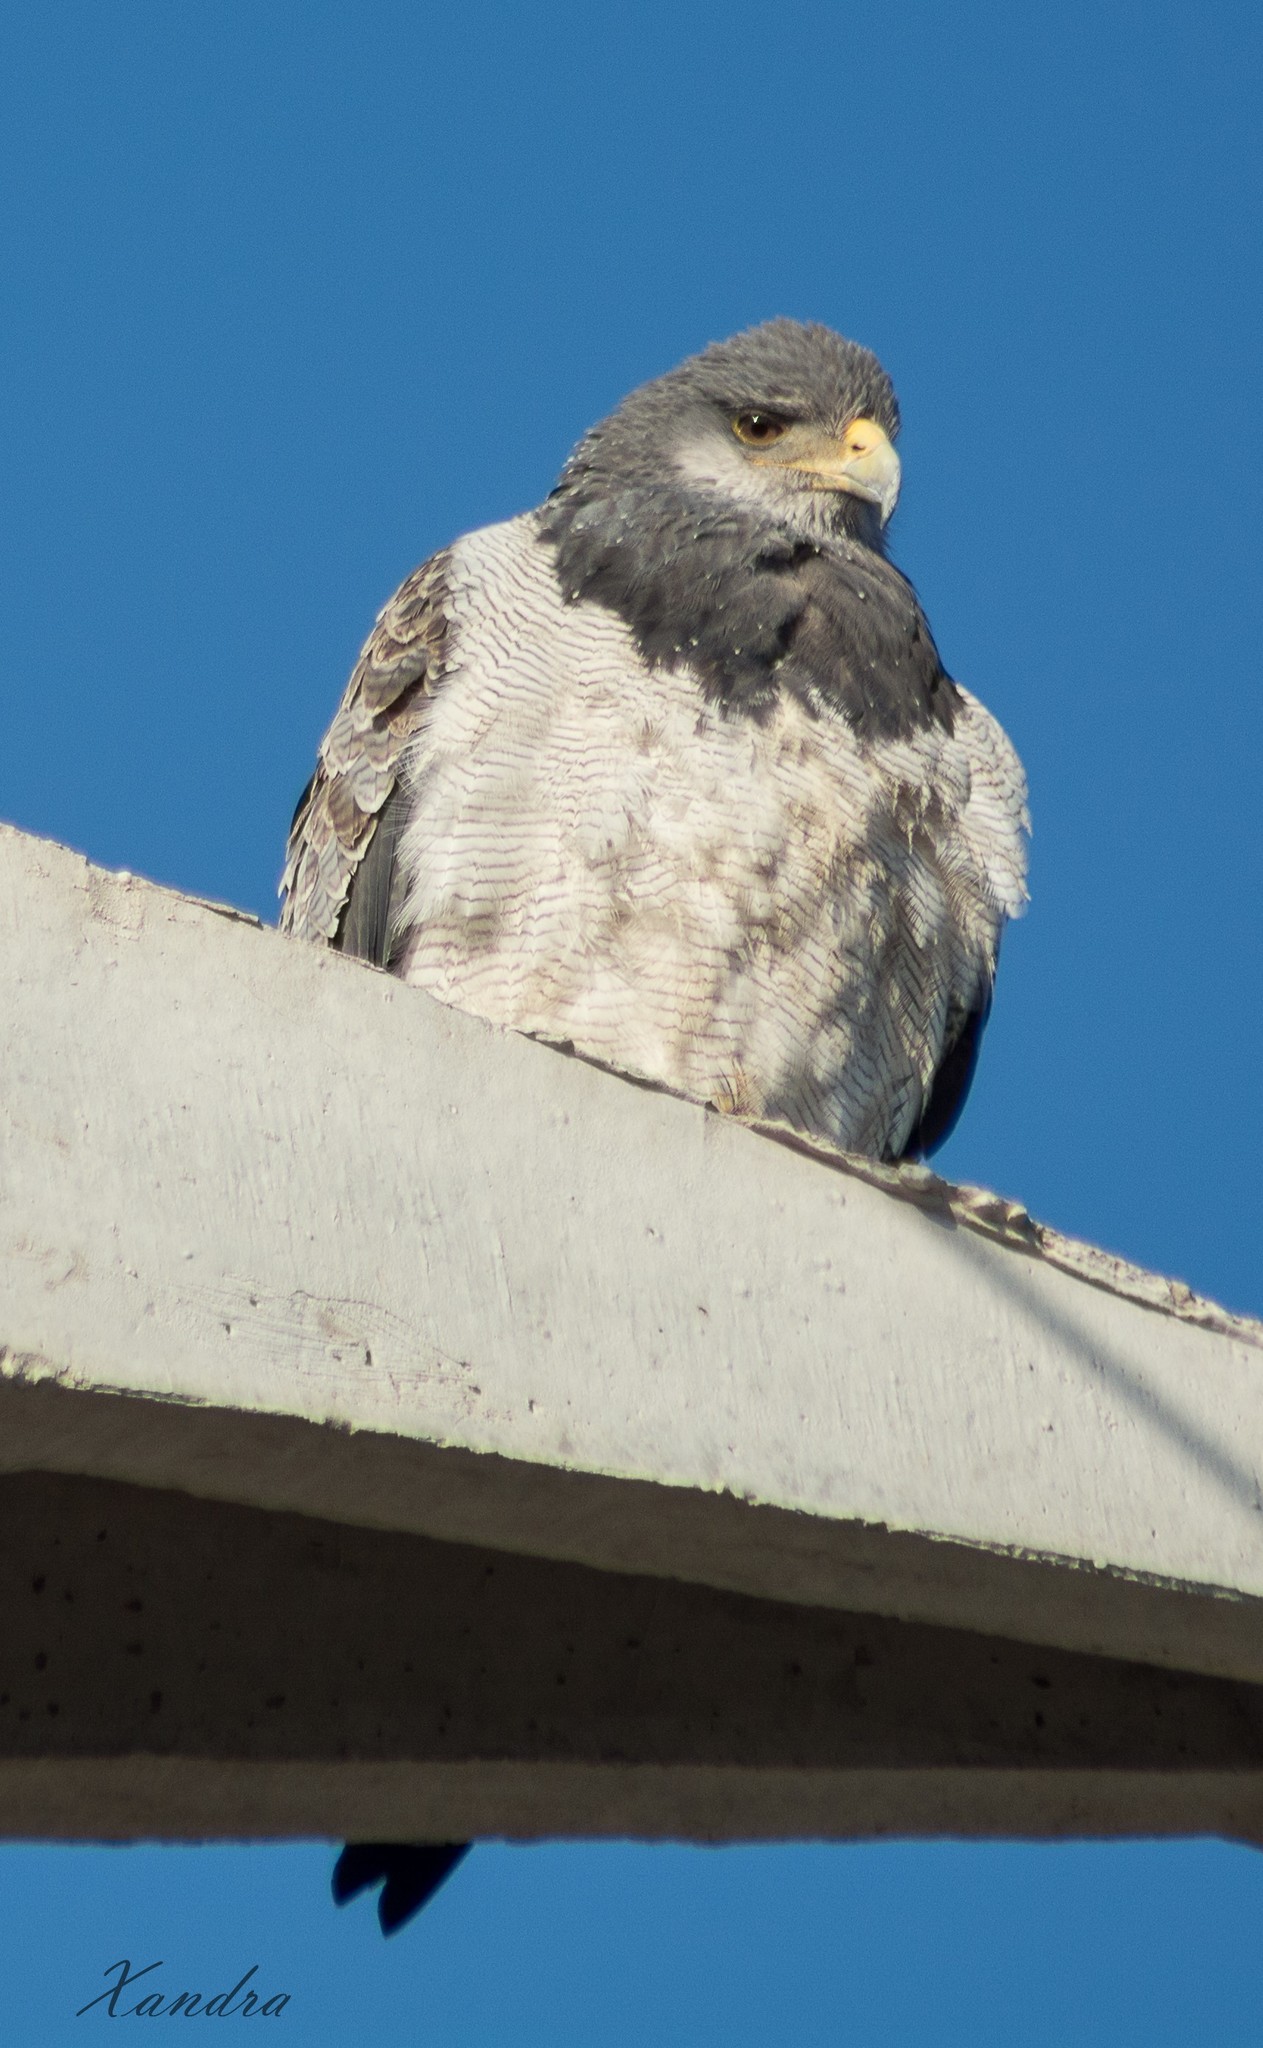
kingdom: Animalia
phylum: Chordata
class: Aves
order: Accipitriformes
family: Accipitridae
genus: Geranoaetus
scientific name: Geranoaetus melanoleucus
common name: Black-chested buzzard-eagle
